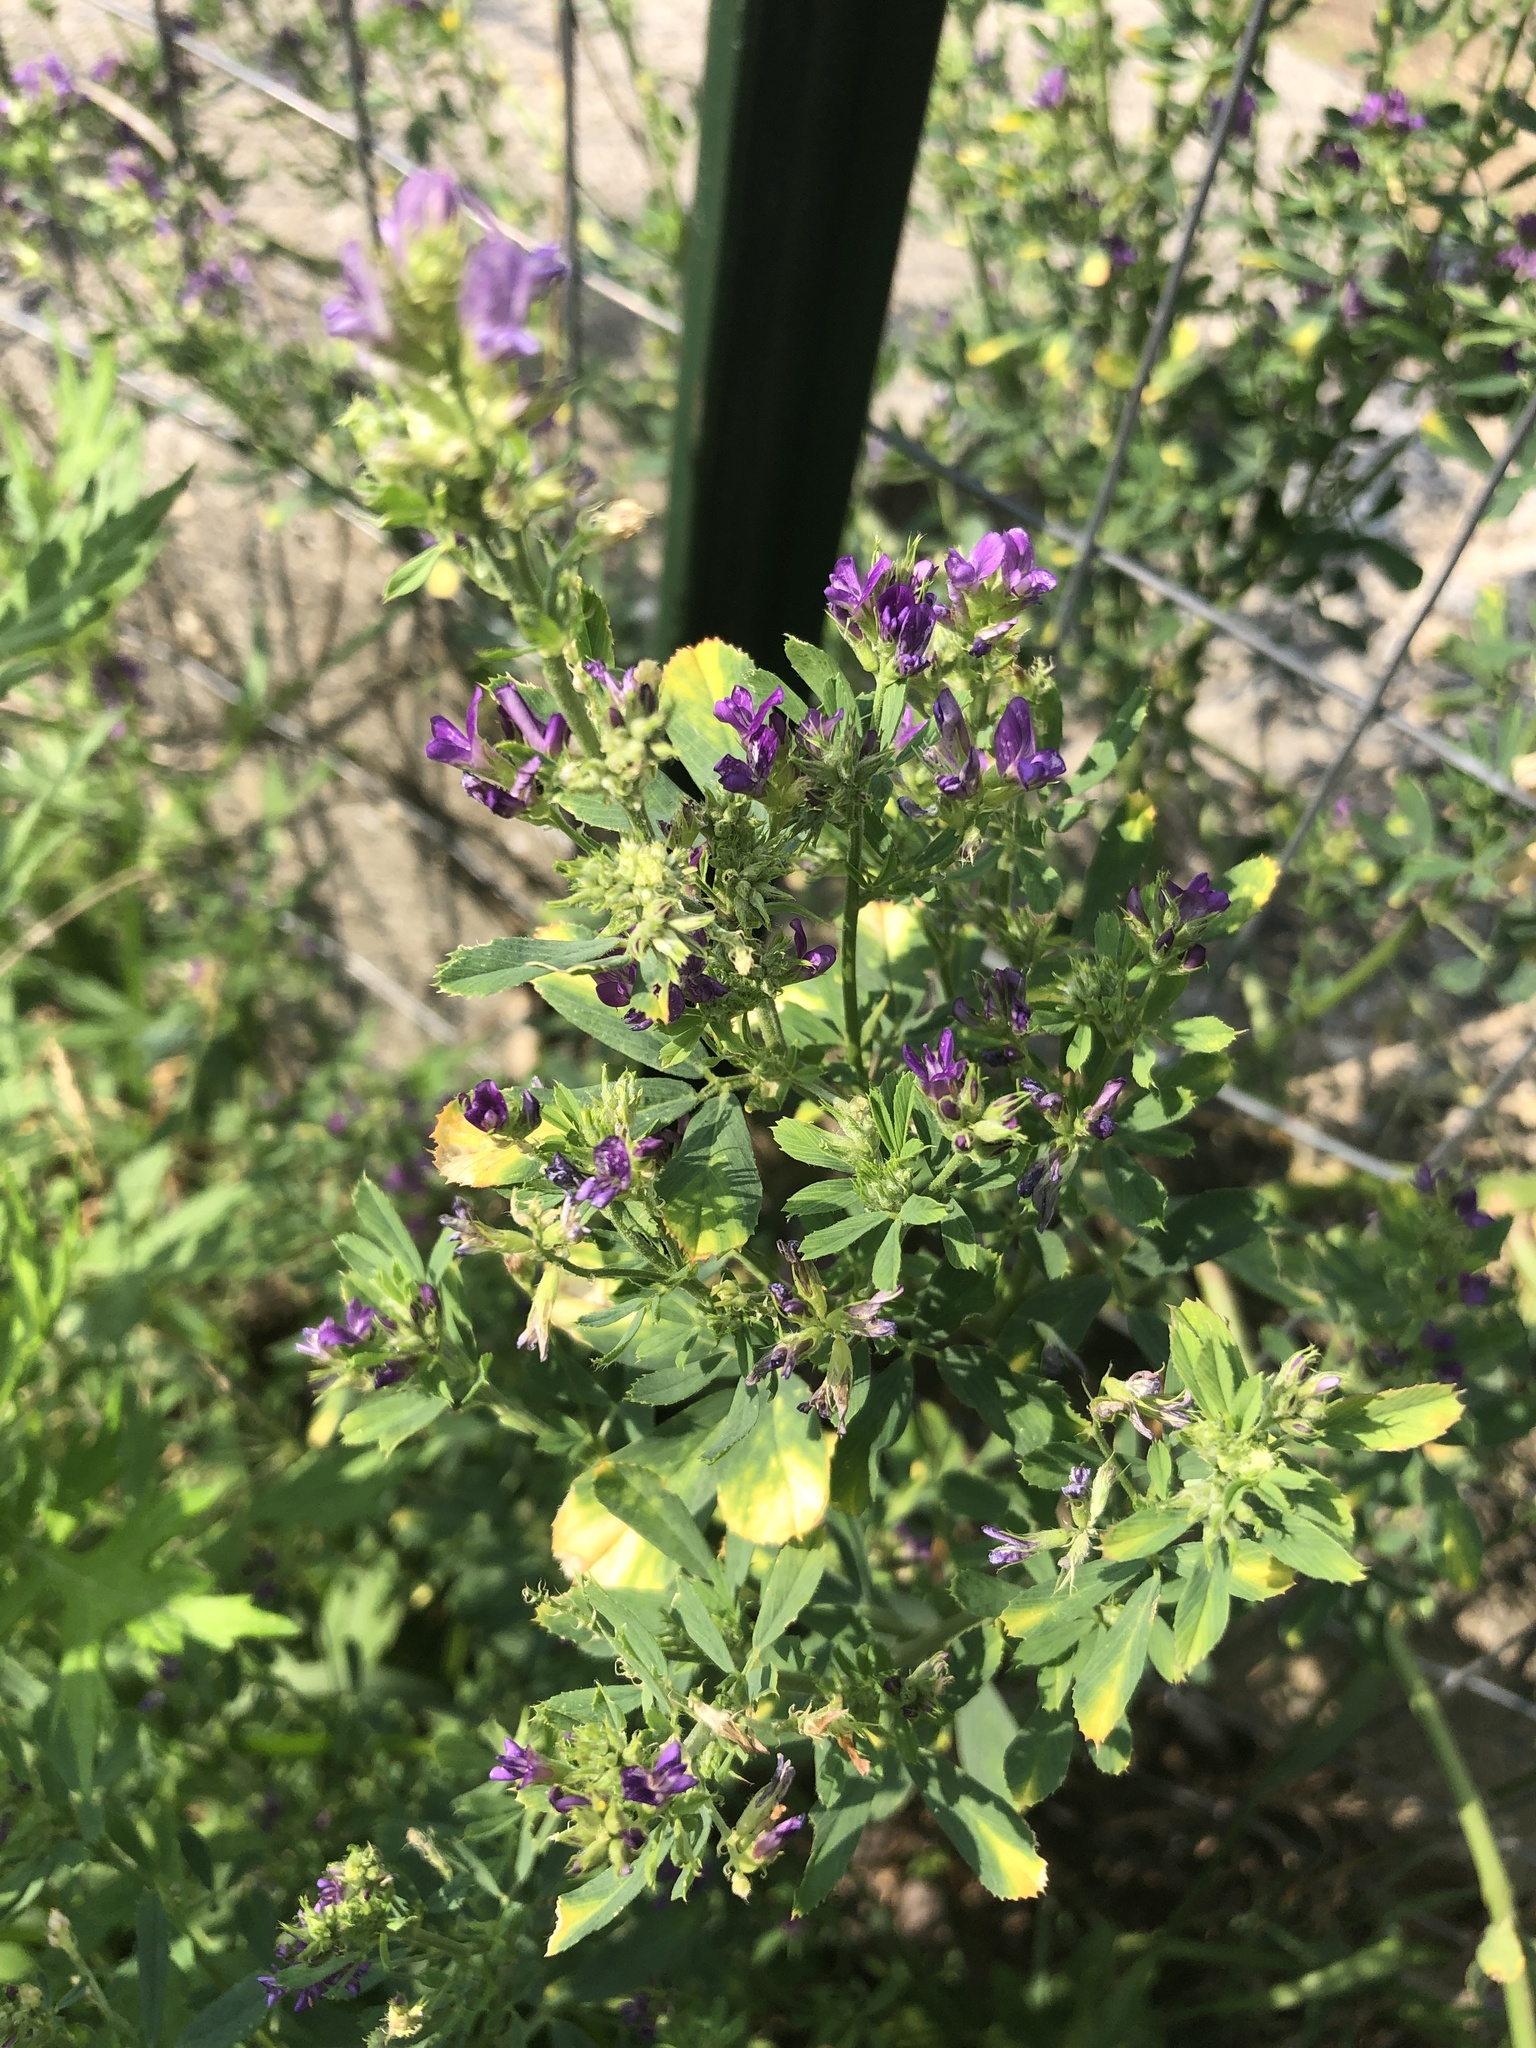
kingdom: Plantae
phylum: Tracheophyta
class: Magnoliopsida
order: Fabales
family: Fabaceae
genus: Medicago
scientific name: Medicago sativa
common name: Alfalfa
